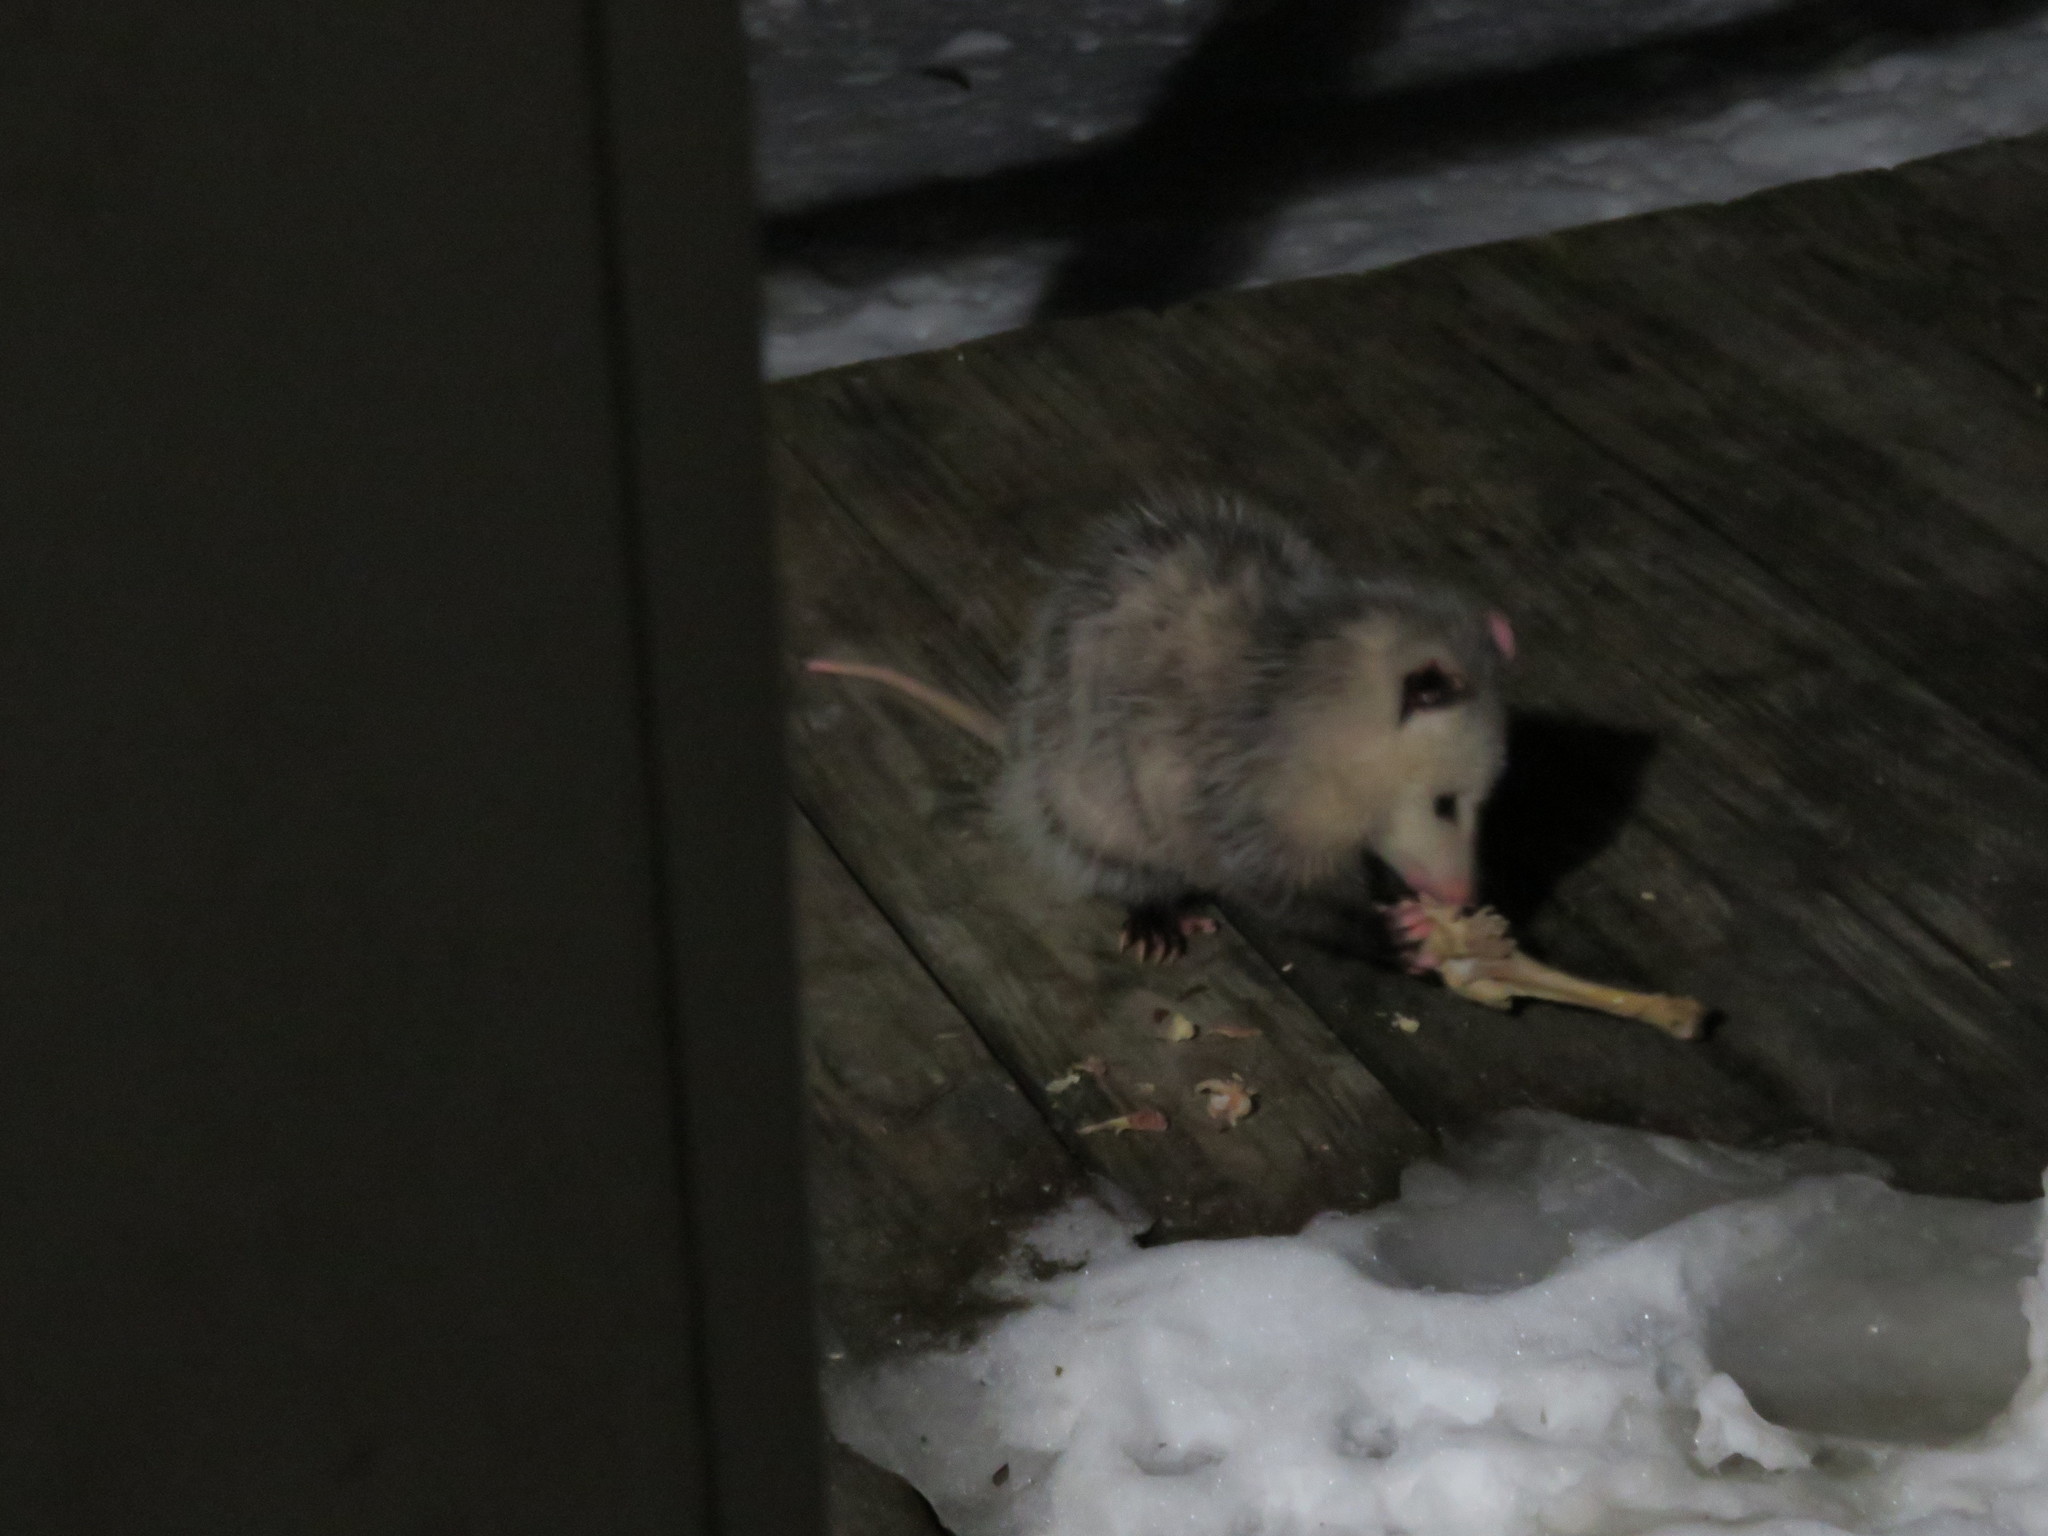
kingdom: Animalia
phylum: Chordata
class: Mammalia
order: Didelphimorphia
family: Didelphidae
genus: Didelphis
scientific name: Didelphis virginiana
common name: Virginia opossum
